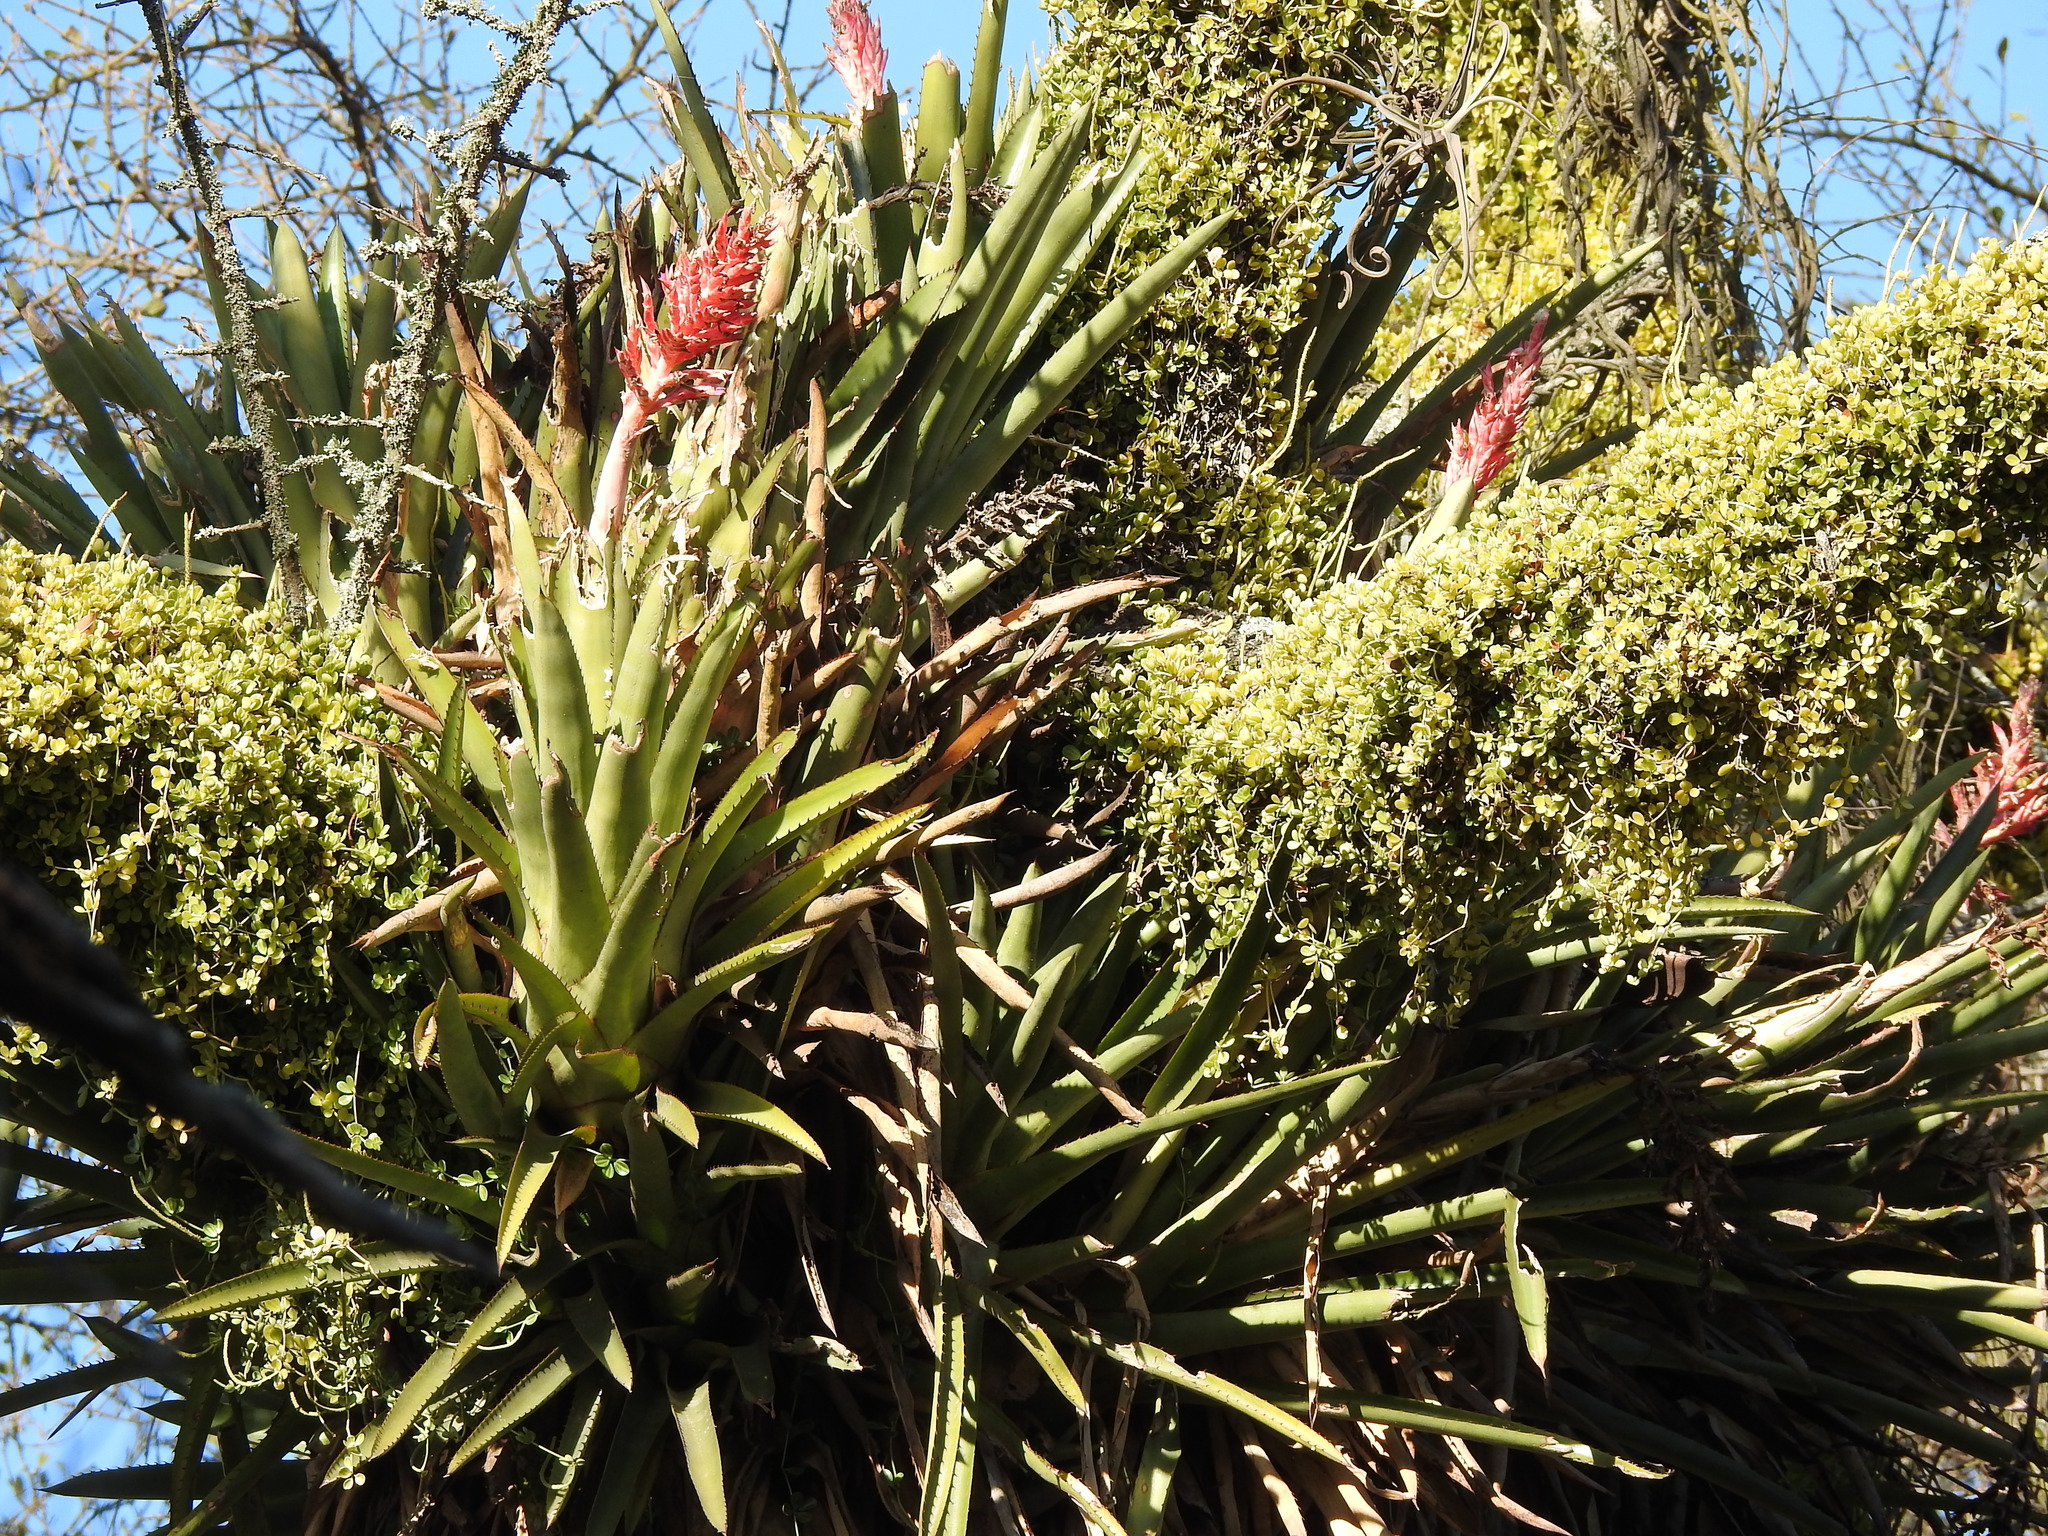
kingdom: Plantae
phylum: Tracheophyta
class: Liliopsida
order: Poales
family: Bromeliaceae
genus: Aechmea
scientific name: Aechmea distichantha
